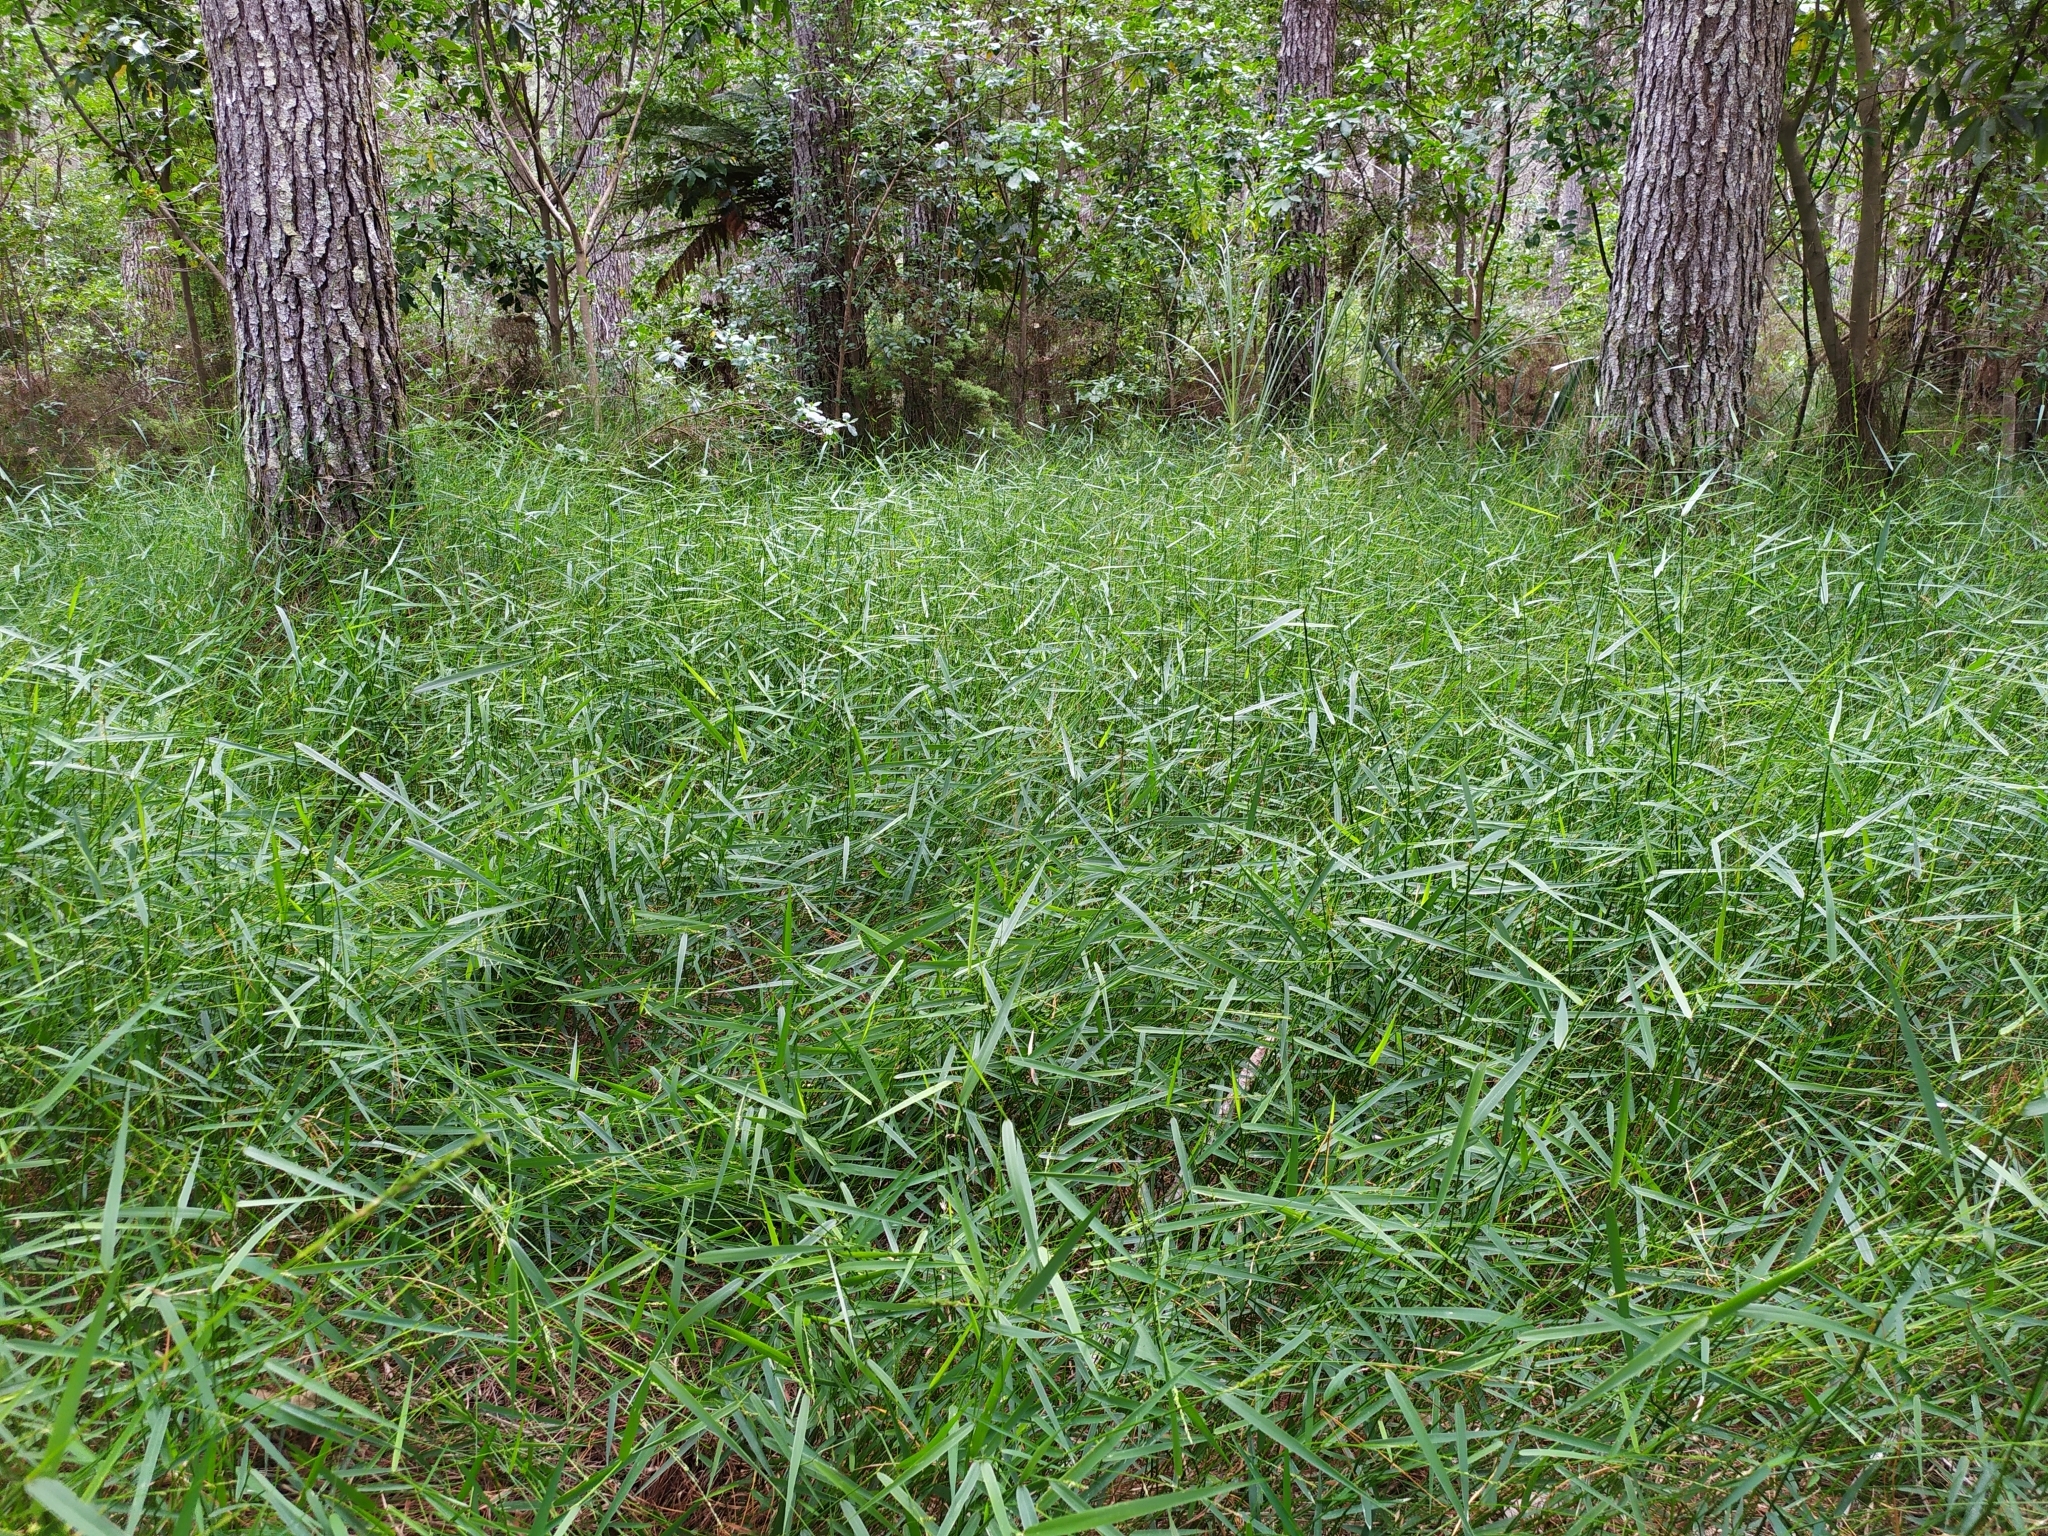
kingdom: Plantae
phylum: Tracheophyta
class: Liliopsida
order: Poales
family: Poaceae
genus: Entolasia
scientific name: Entolasia marginata
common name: Australian panicgrass
